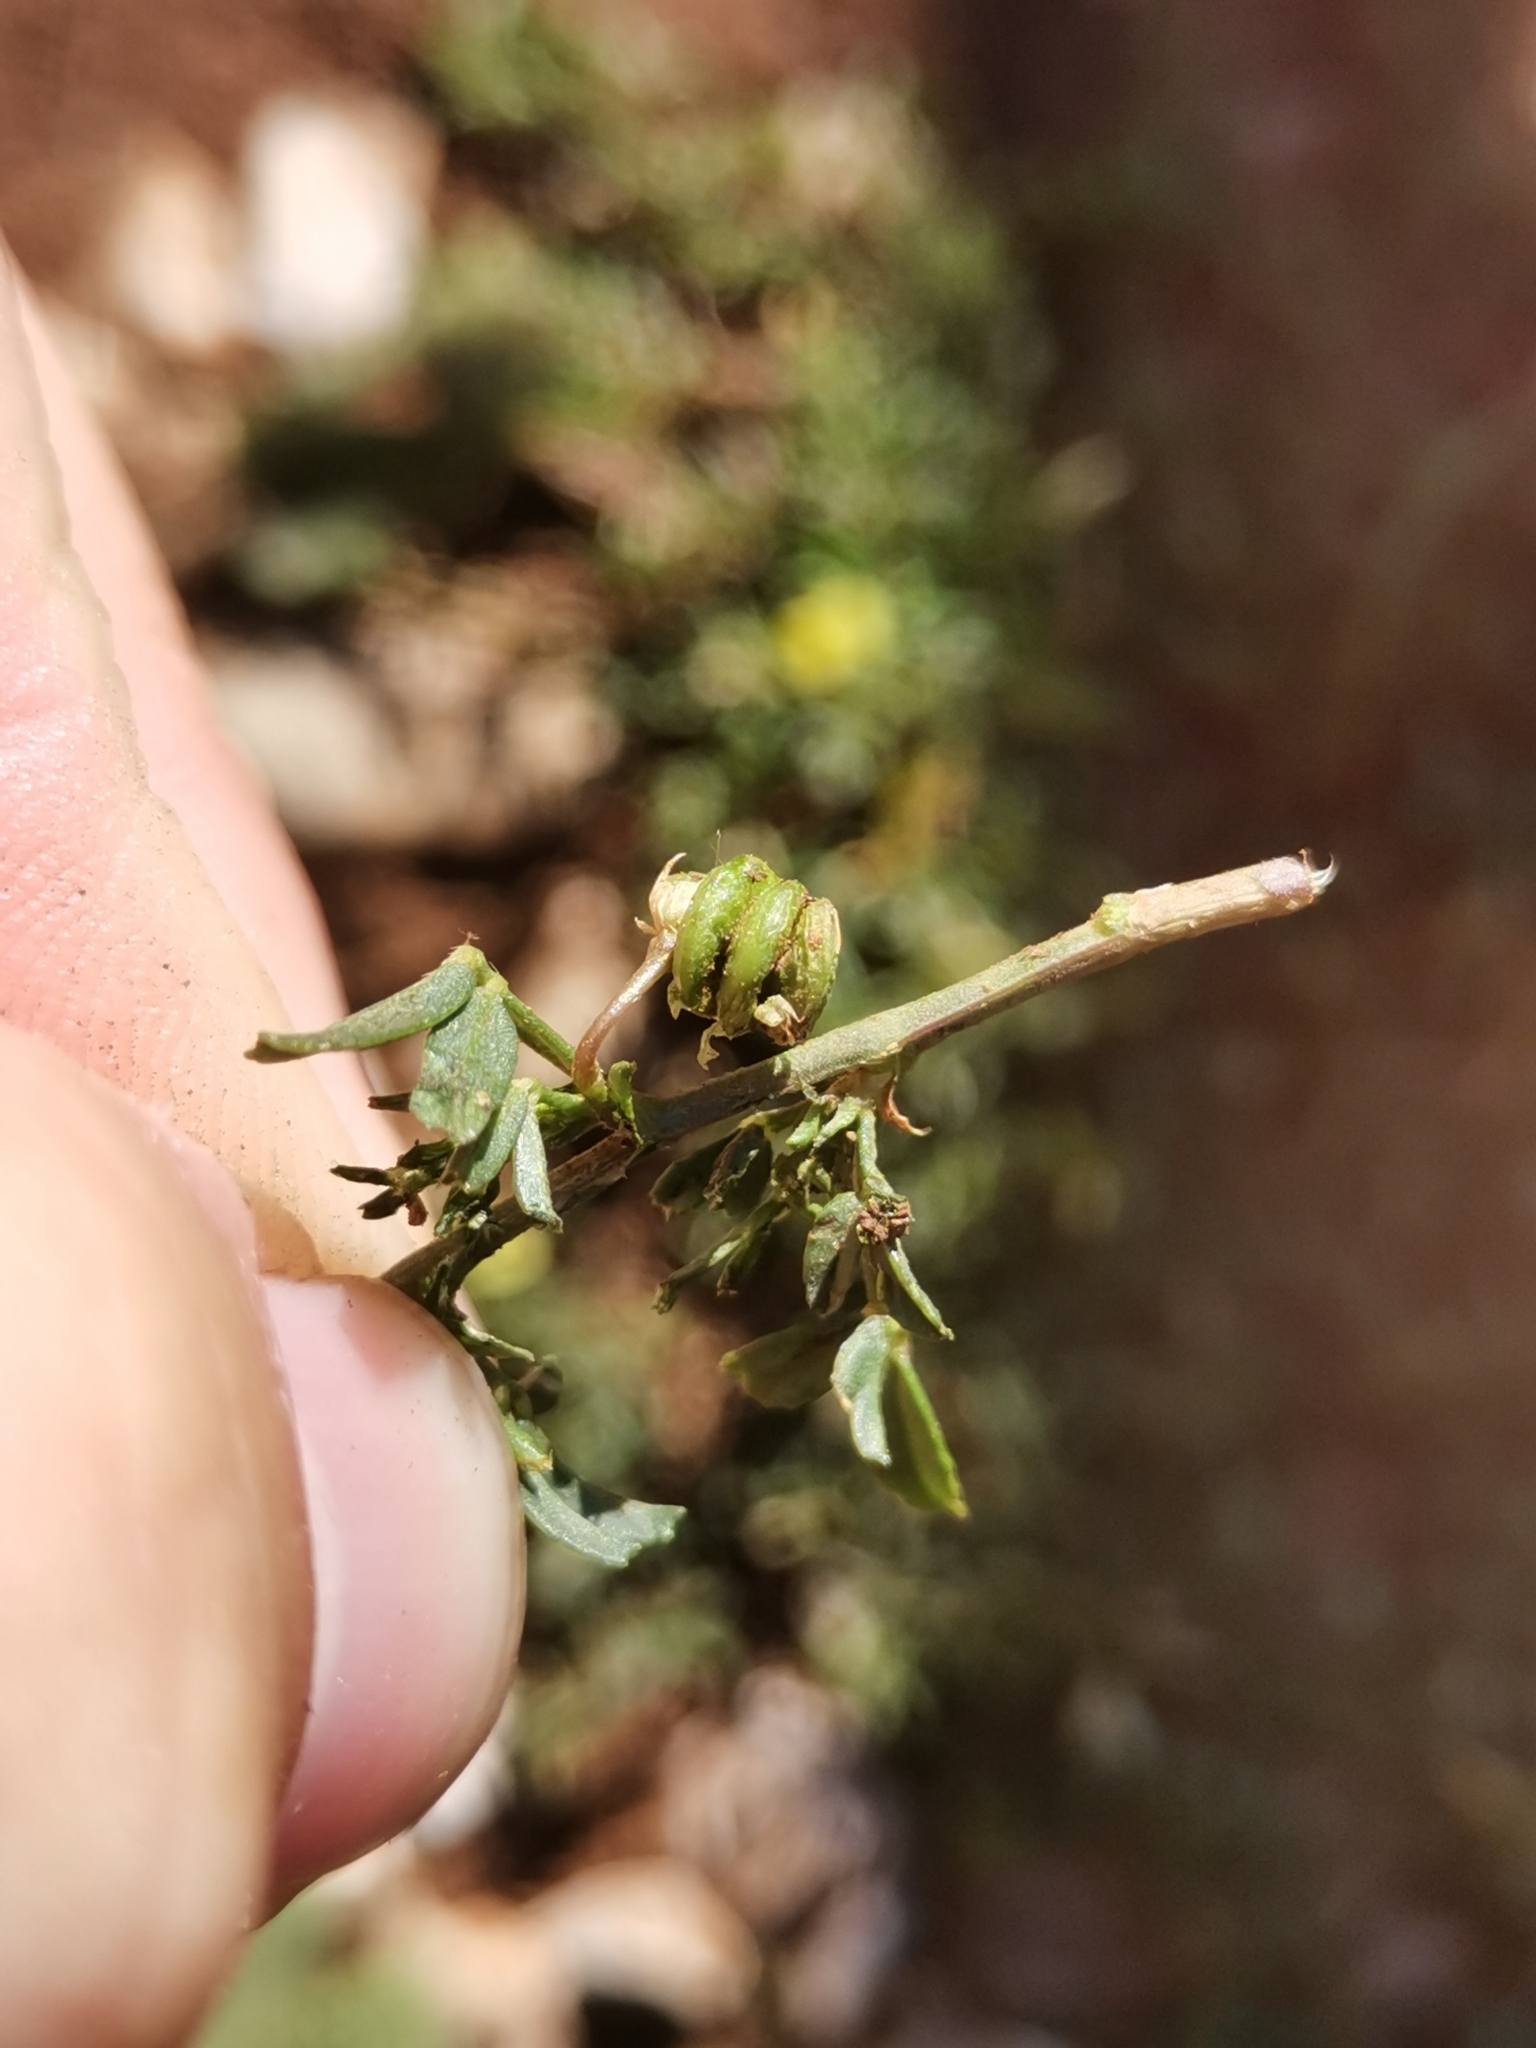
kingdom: Plantae
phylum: Tracheophyta
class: Magnoliopsida
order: Fabales
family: Fabaceae
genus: Medicago
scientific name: Medicago prostrata
